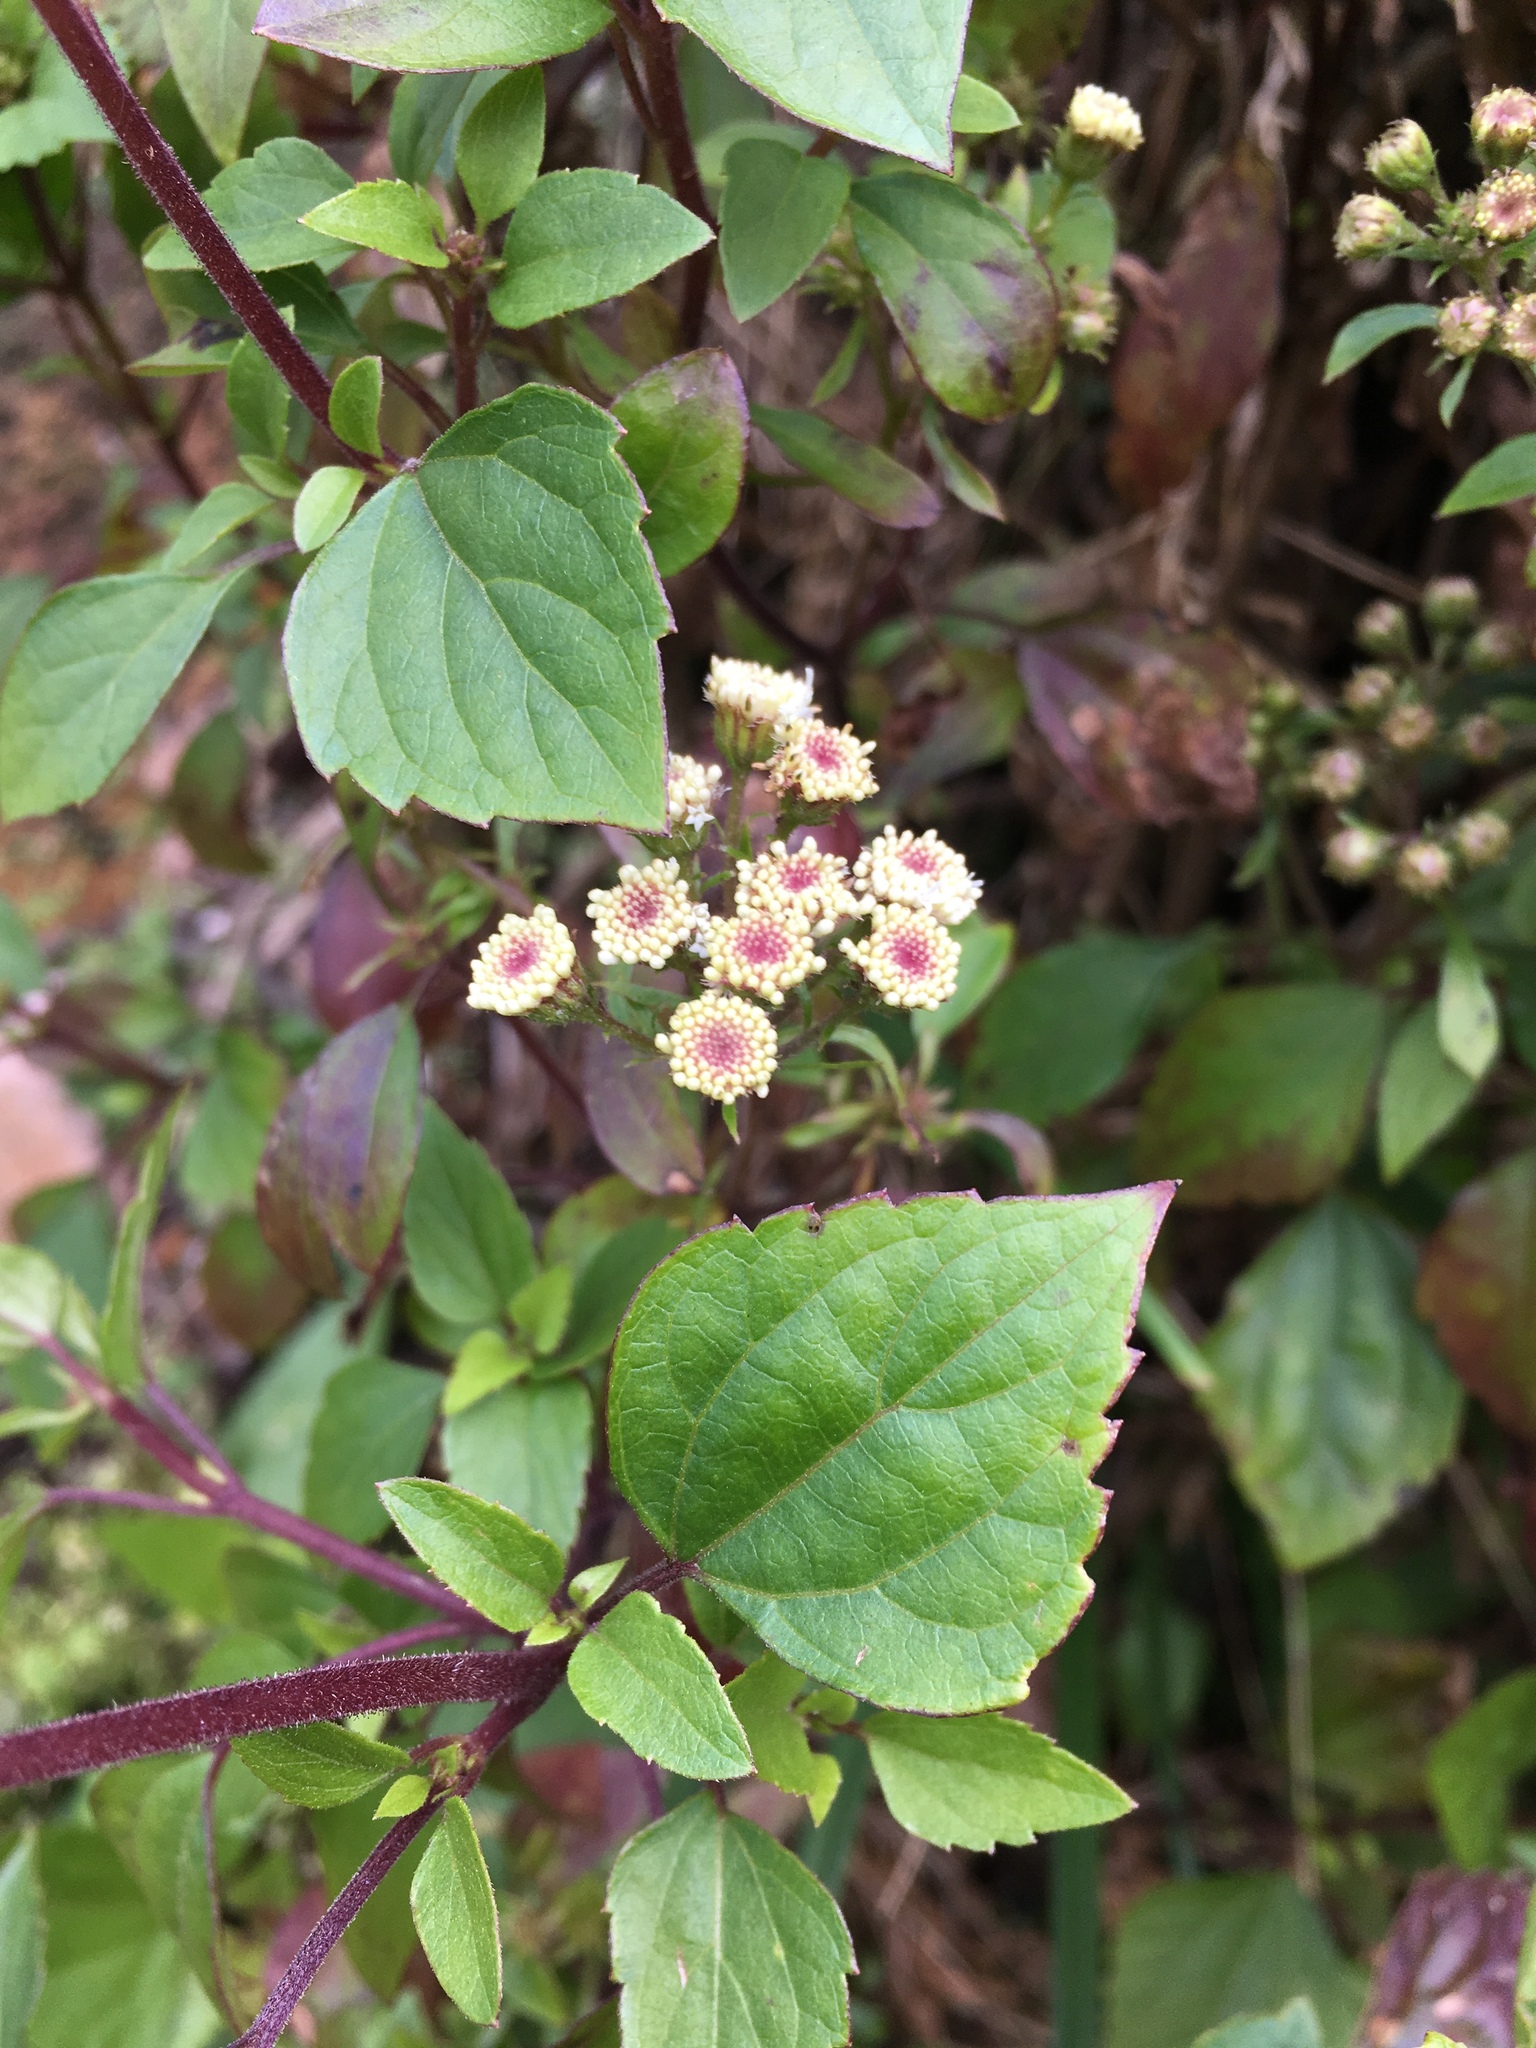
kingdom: Plantae
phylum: Tracheophyta
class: Magnoliopsida
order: Asterales
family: Asteraceae
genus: Ageratina
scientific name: Ageratina adenophora
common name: Sticky snakeroot
